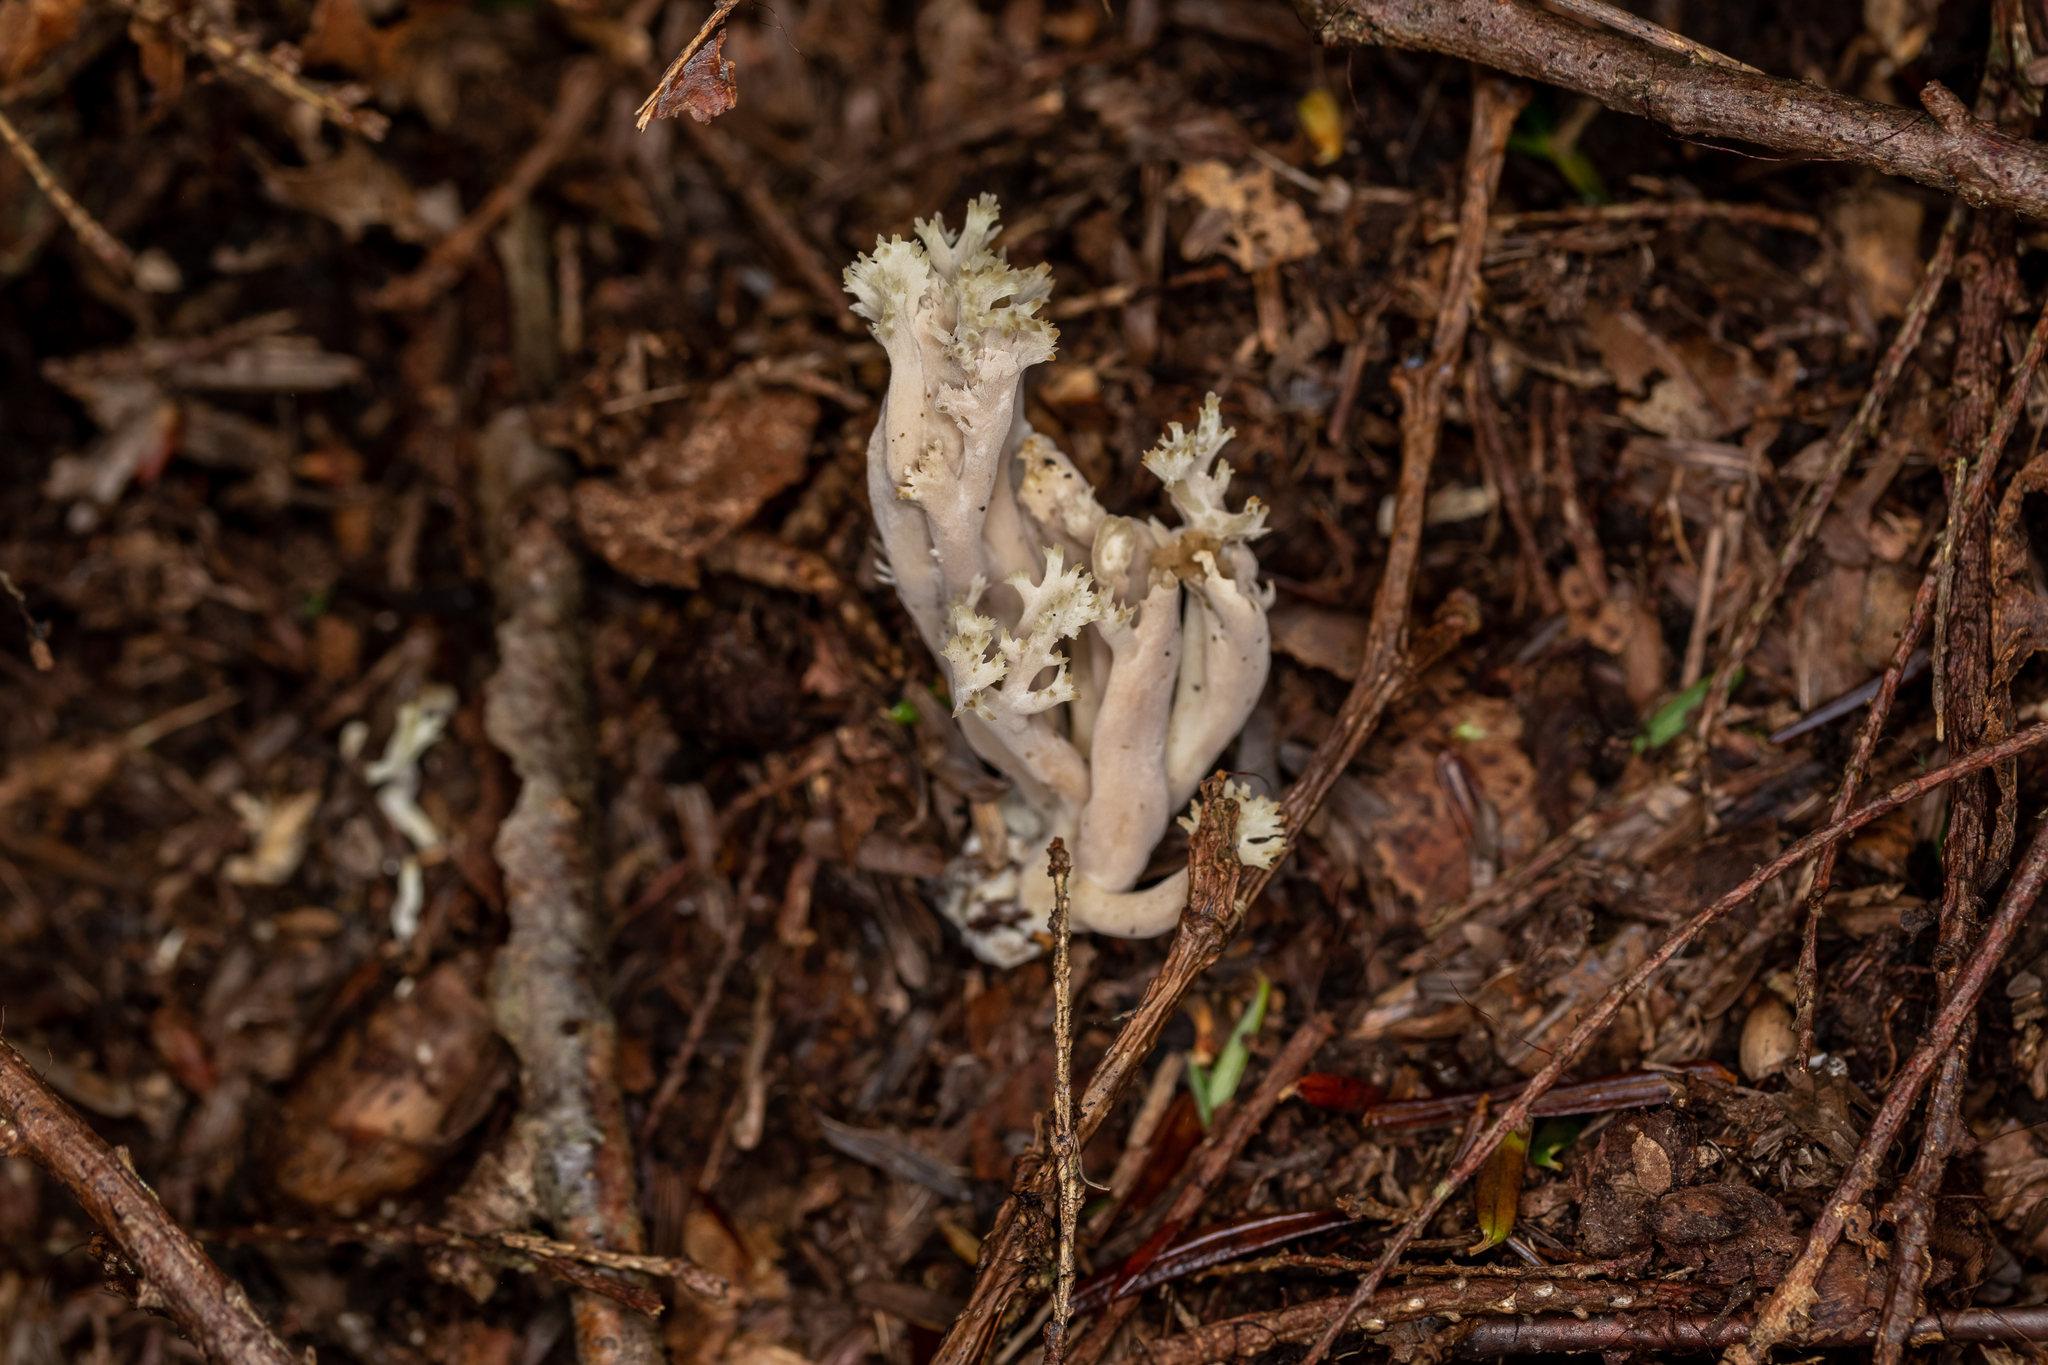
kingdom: Fungi
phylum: Basidiomycota
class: Agaricomycetes
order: Cantharellales
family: Hydnaceae
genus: Clavulina
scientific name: Clavulina cinerea
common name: Grey coral
